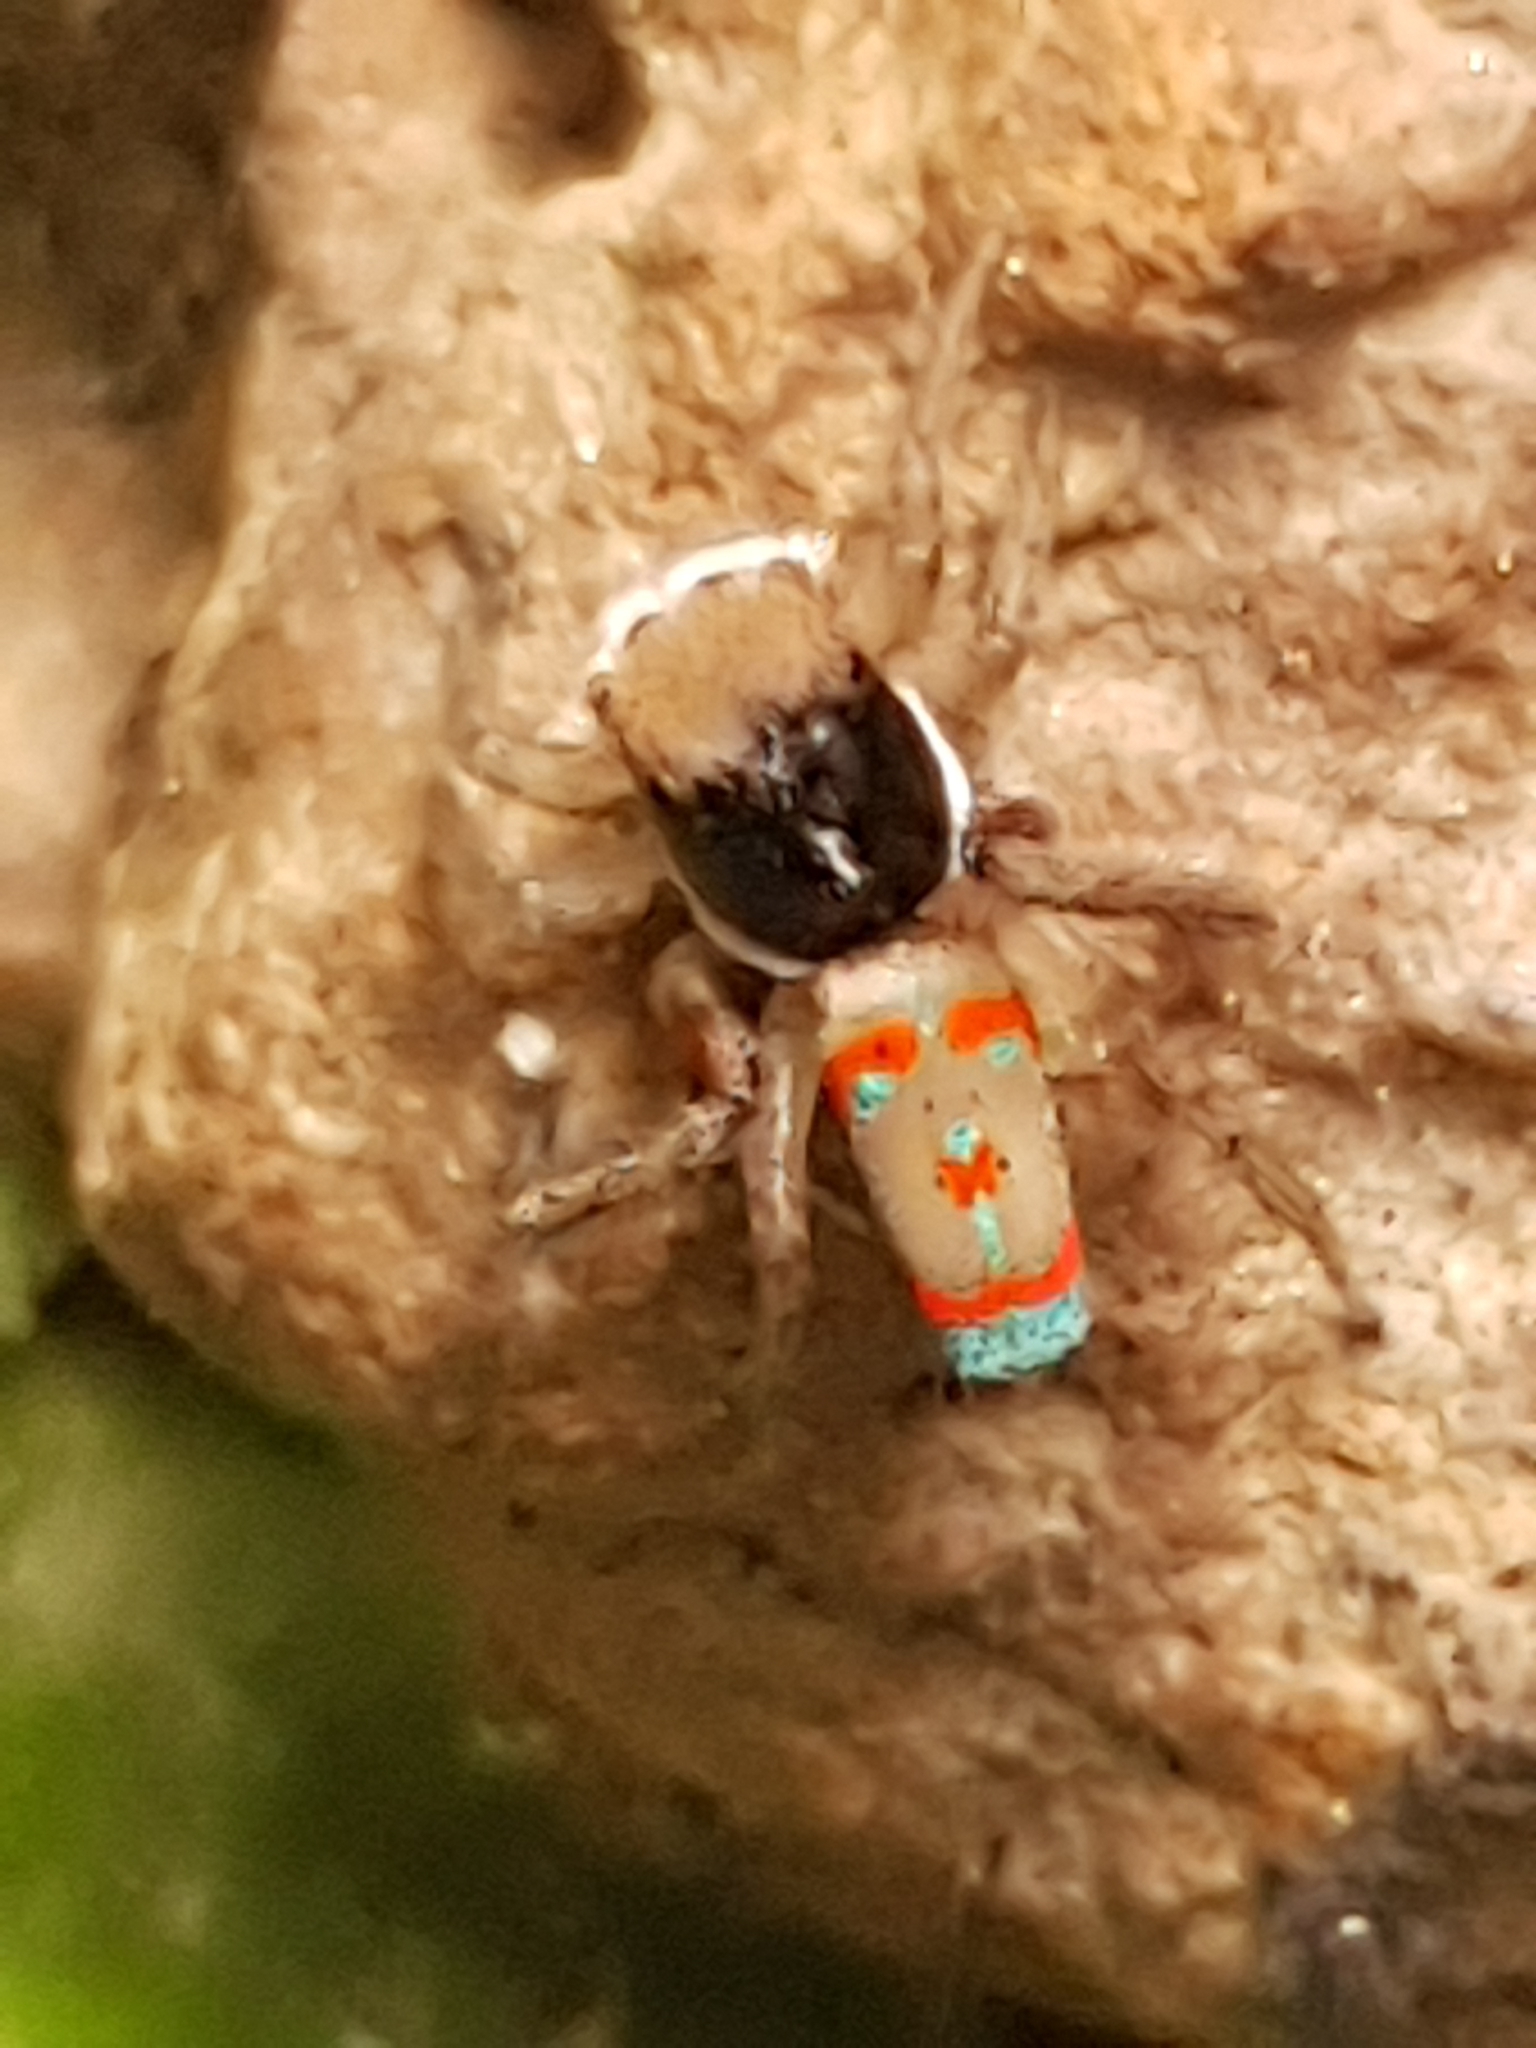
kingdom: Animalia
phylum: Arthropoda
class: Arachnida
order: Araneae
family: Salticidae
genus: Maratus
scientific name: Maratus pavonis
